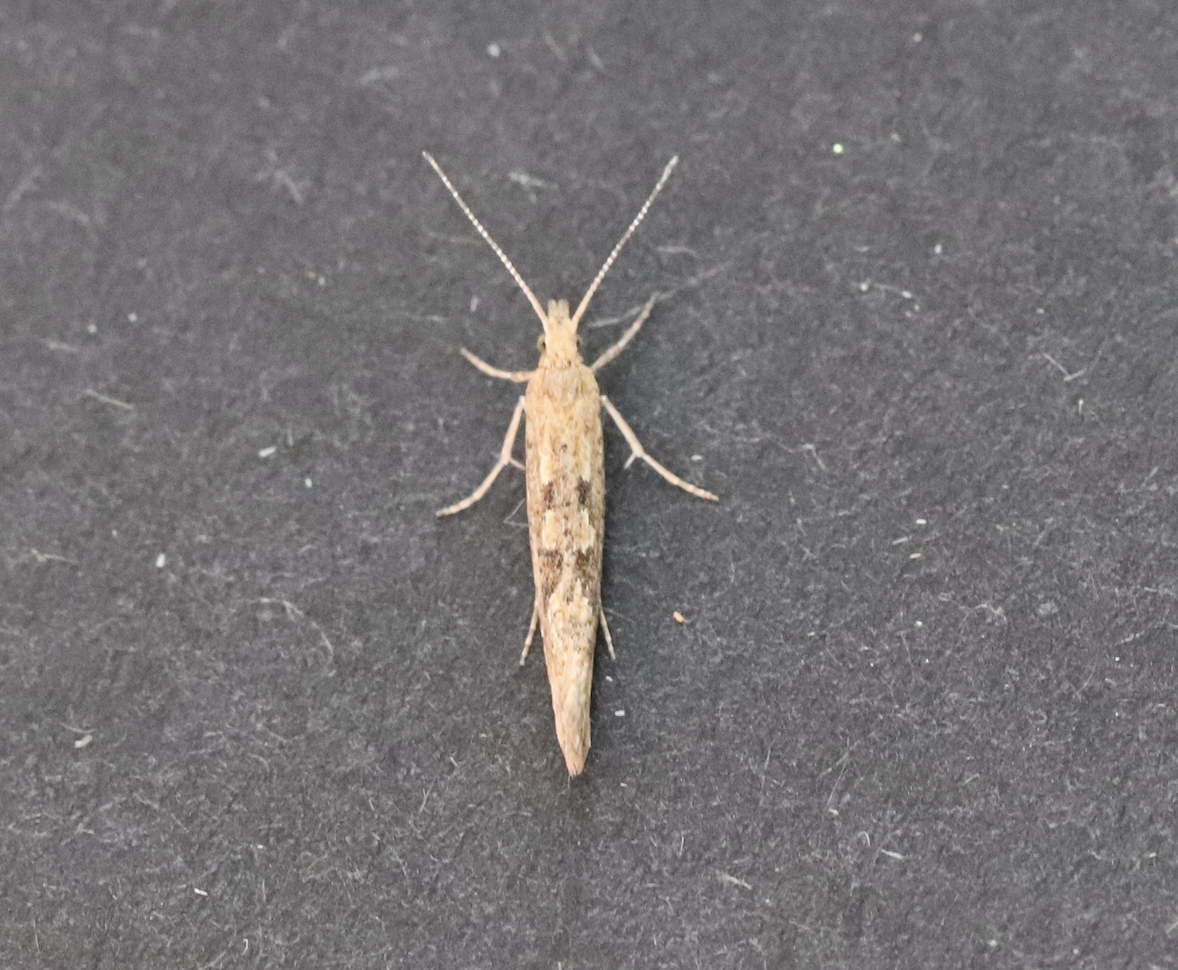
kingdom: Animalia
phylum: Arthropoda
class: Insecta
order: Lepidoptera
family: Plutellidae
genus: Plutella
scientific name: Plutella xylostella
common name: Diamond-back moth
